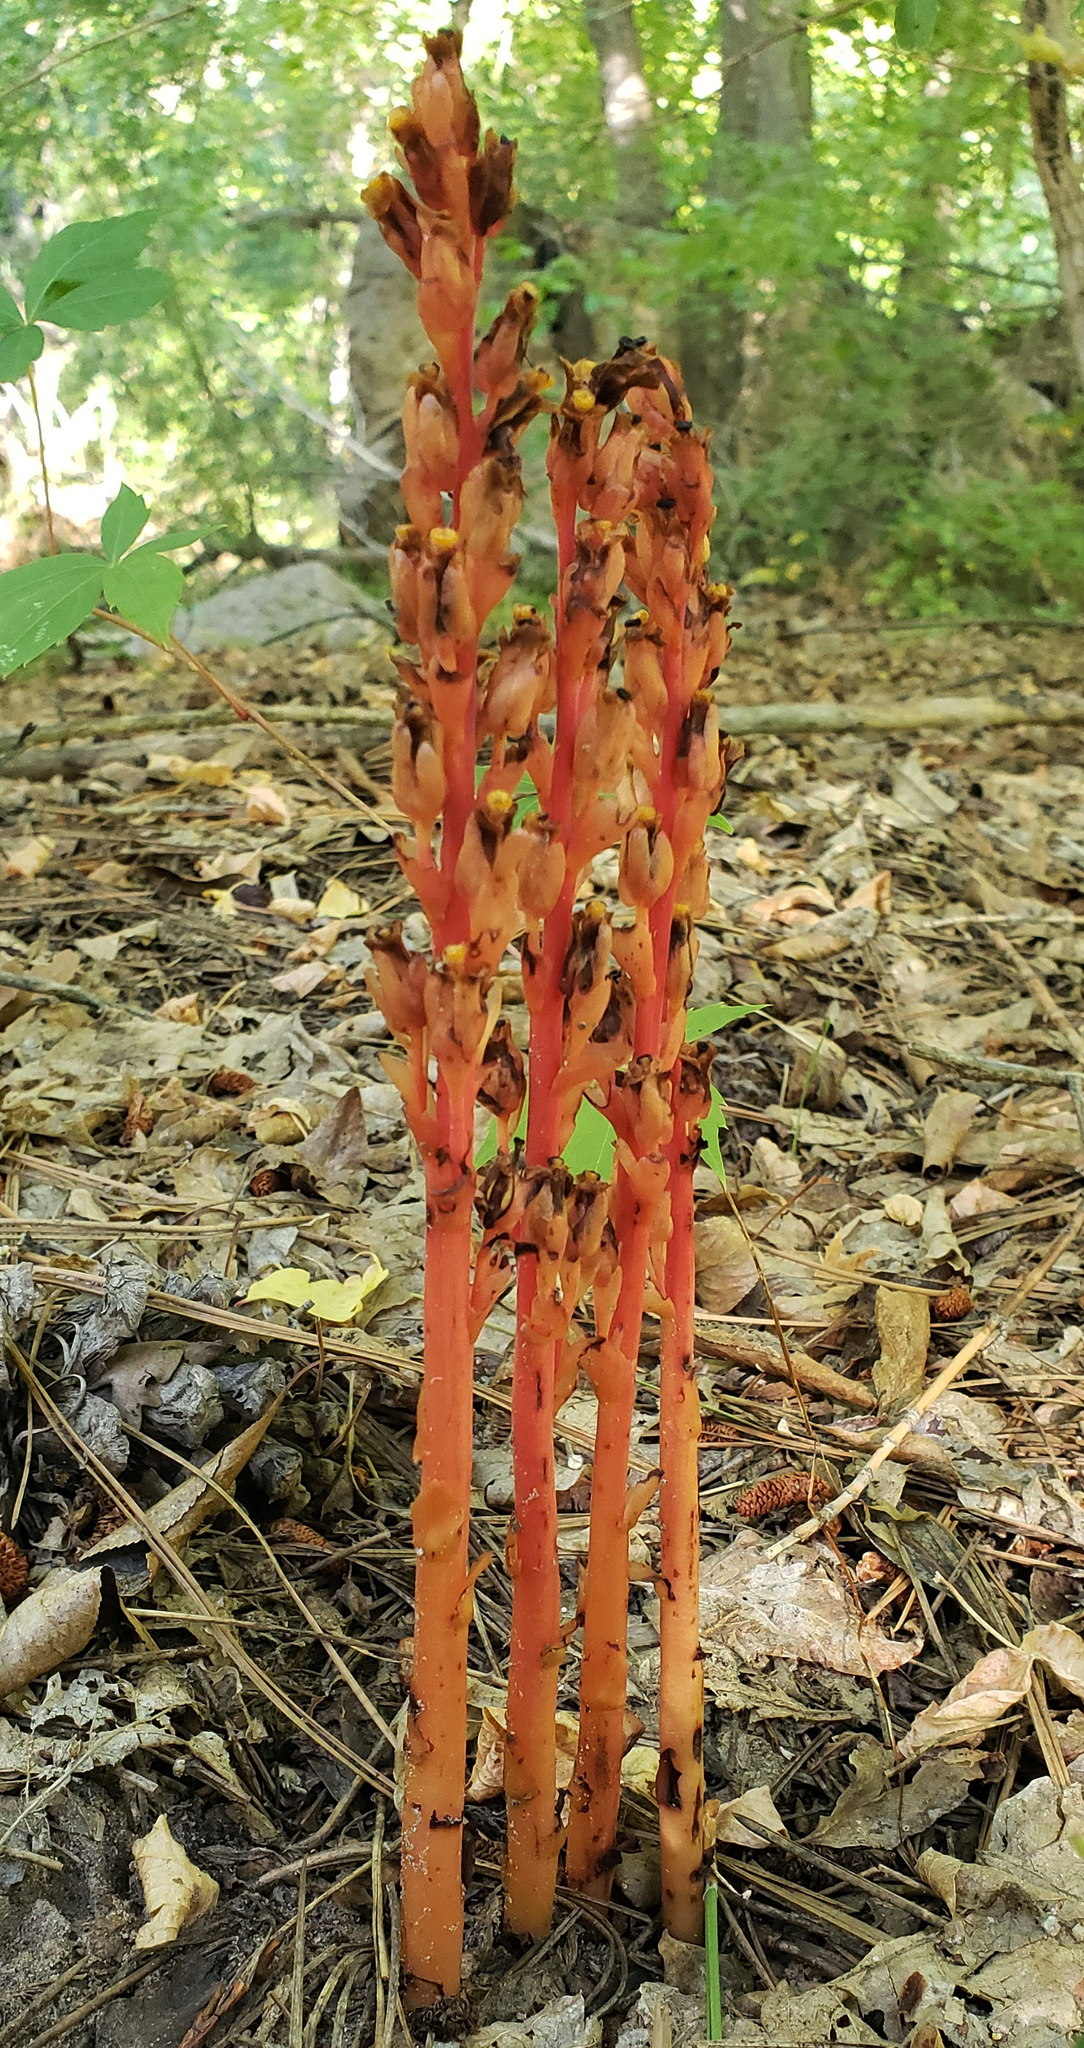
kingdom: Plantae
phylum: Tracheophyta
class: Magnoliopsida
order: Ericales
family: Ericaceae
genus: Hypopitys
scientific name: Hypopitys monotropa
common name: Yellow bird's-nest
